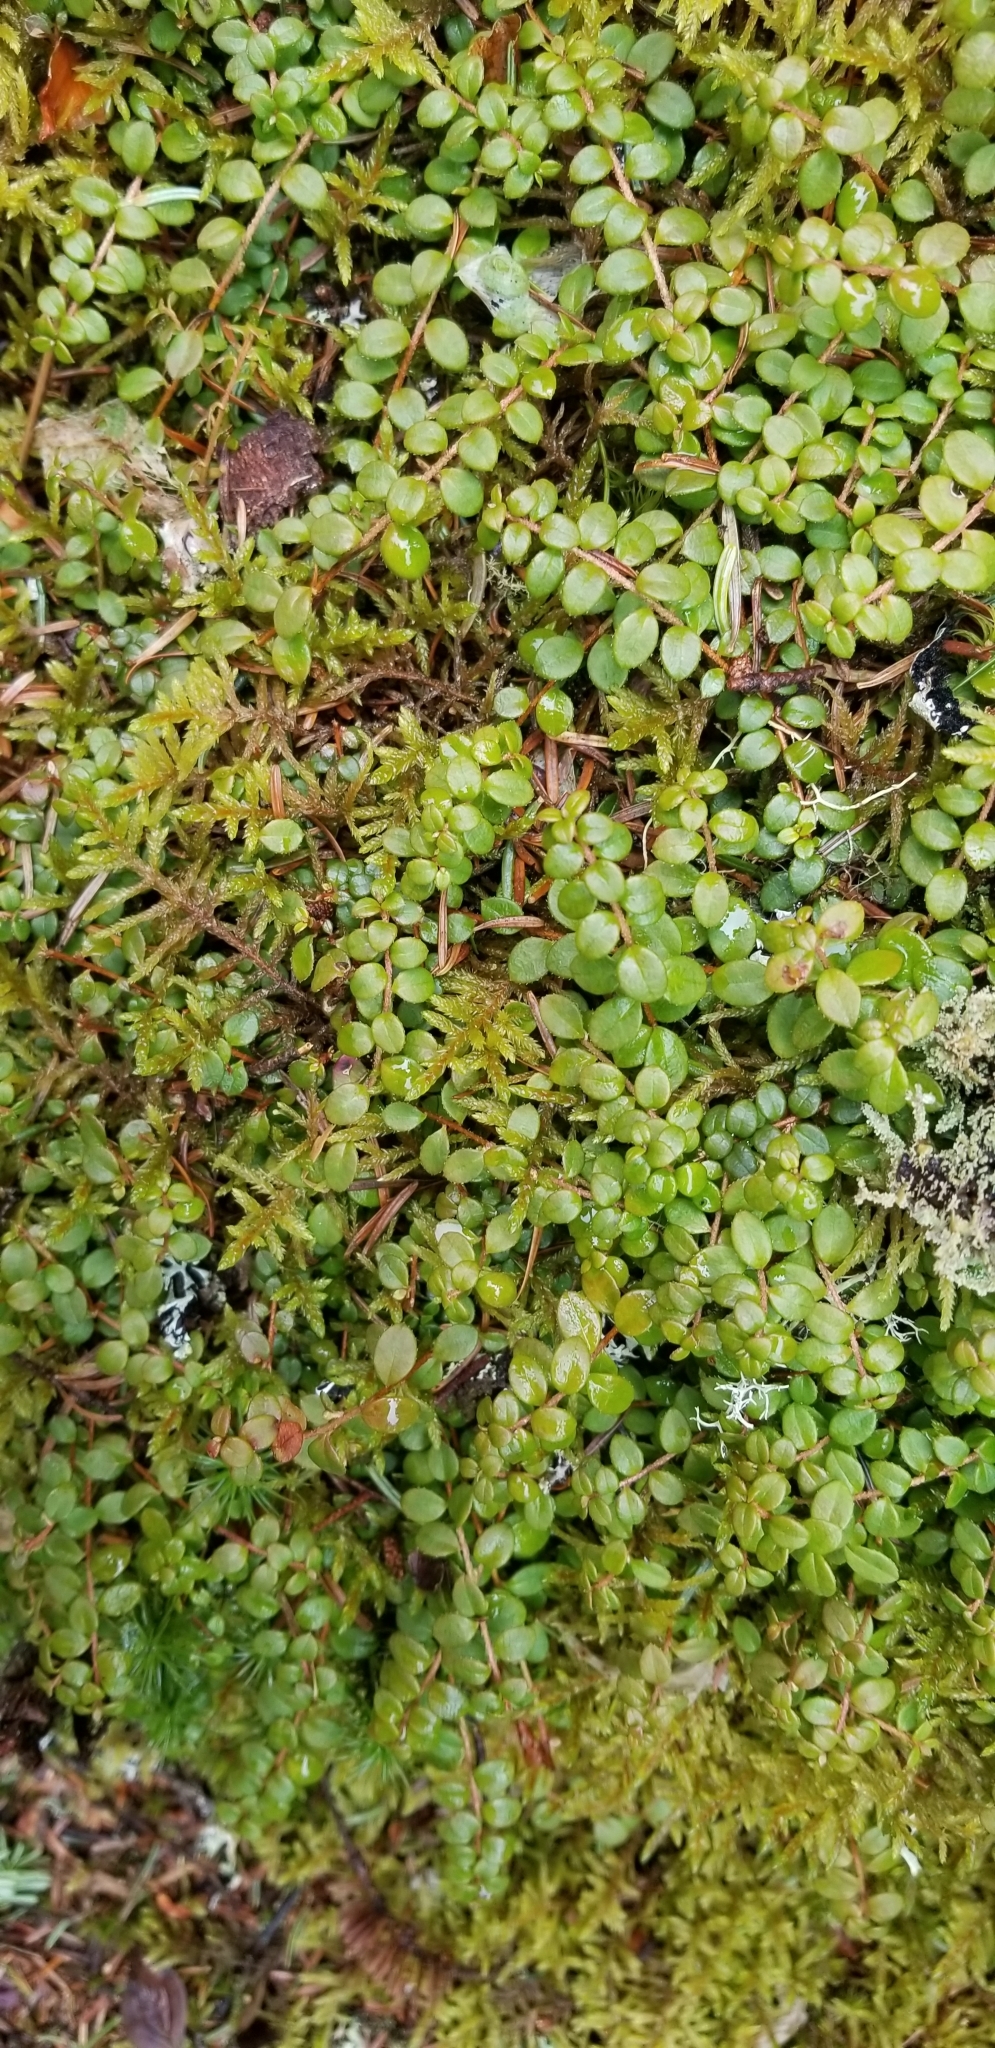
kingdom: Plantae
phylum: Tracheophyta
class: Magnoliopsida
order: Ericales
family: Ericaceae
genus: Gaultheria
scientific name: Gaultheria hispidula
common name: Cancer wintergreen
